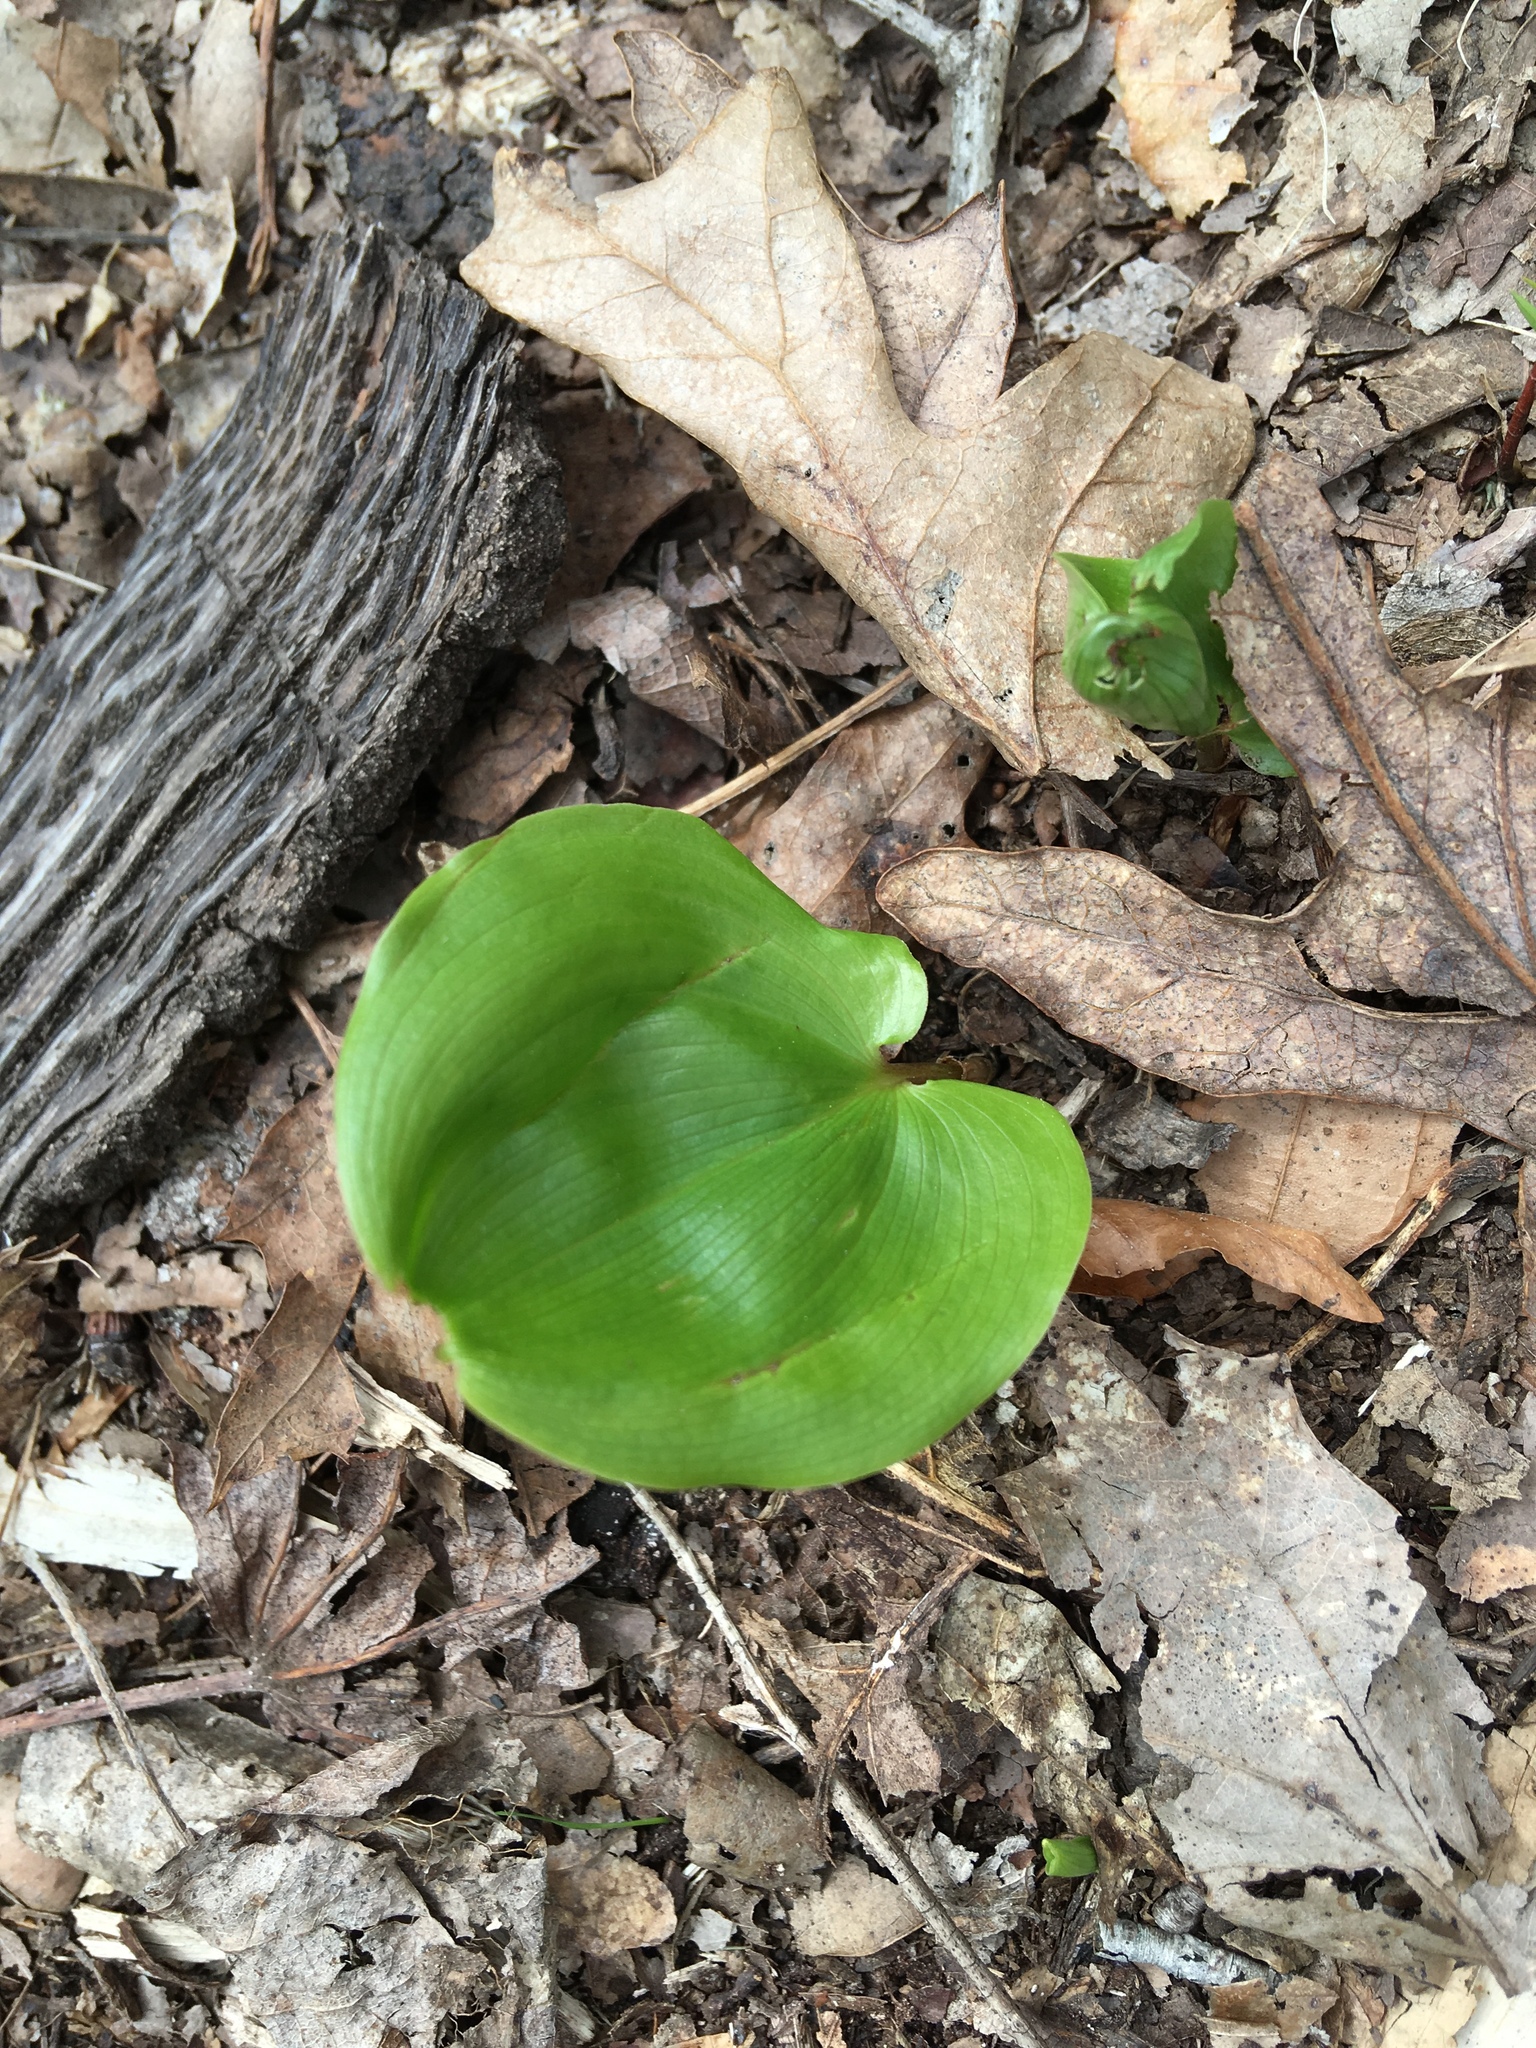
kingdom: Plantae
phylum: Tracheophyta
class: Liliopsida
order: Liliales
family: Smilacaceae
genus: Smilax
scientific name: Smilax rotundifolia
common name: Bullbriar
